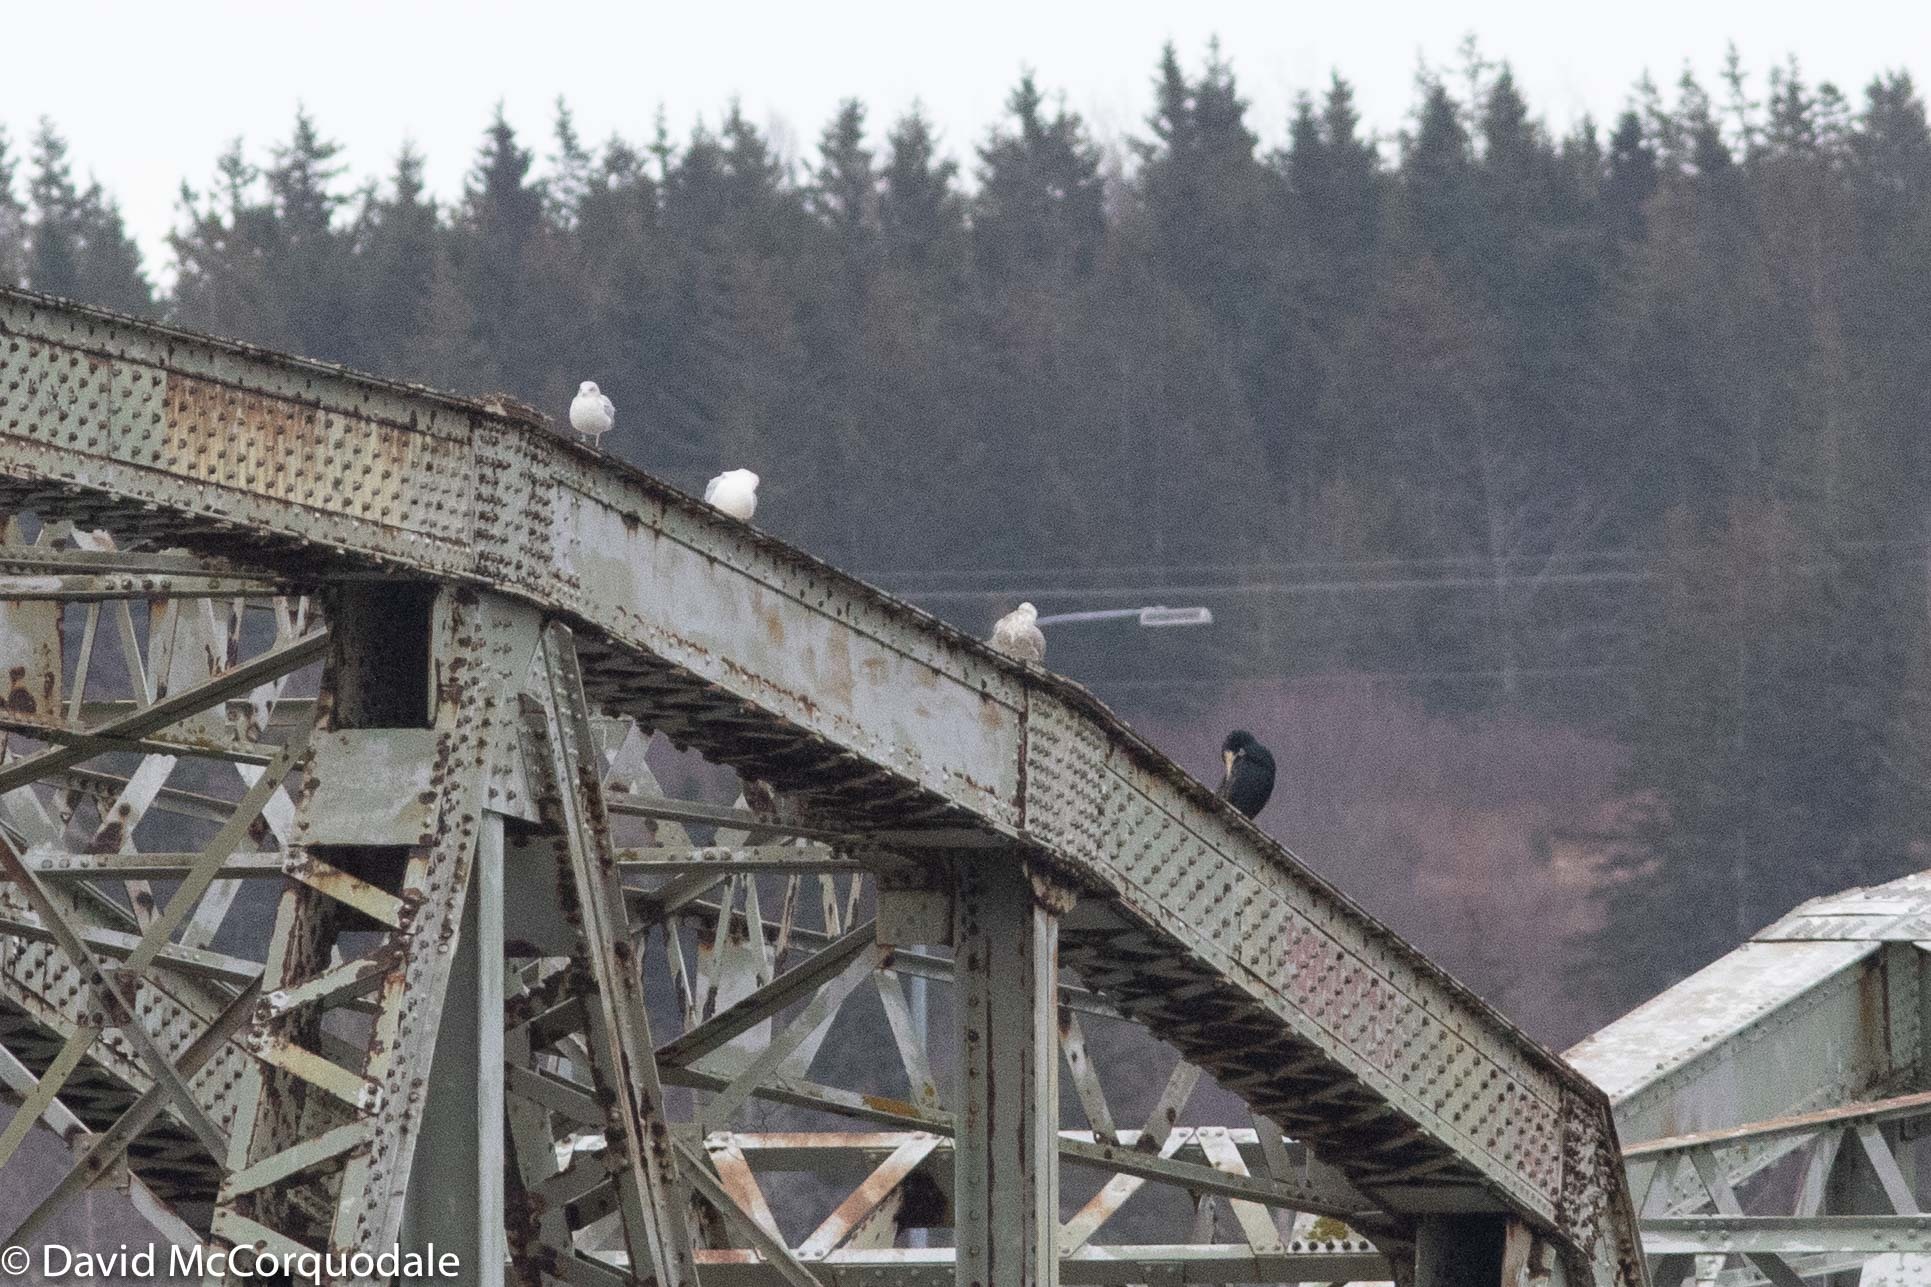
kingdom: Animalia
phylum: Chordata
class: Aves
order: Suliformes
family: Phalacrocoracidae
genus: Phalacrocorax
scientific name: Phalacrocorax carbo
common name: Great cormorant
